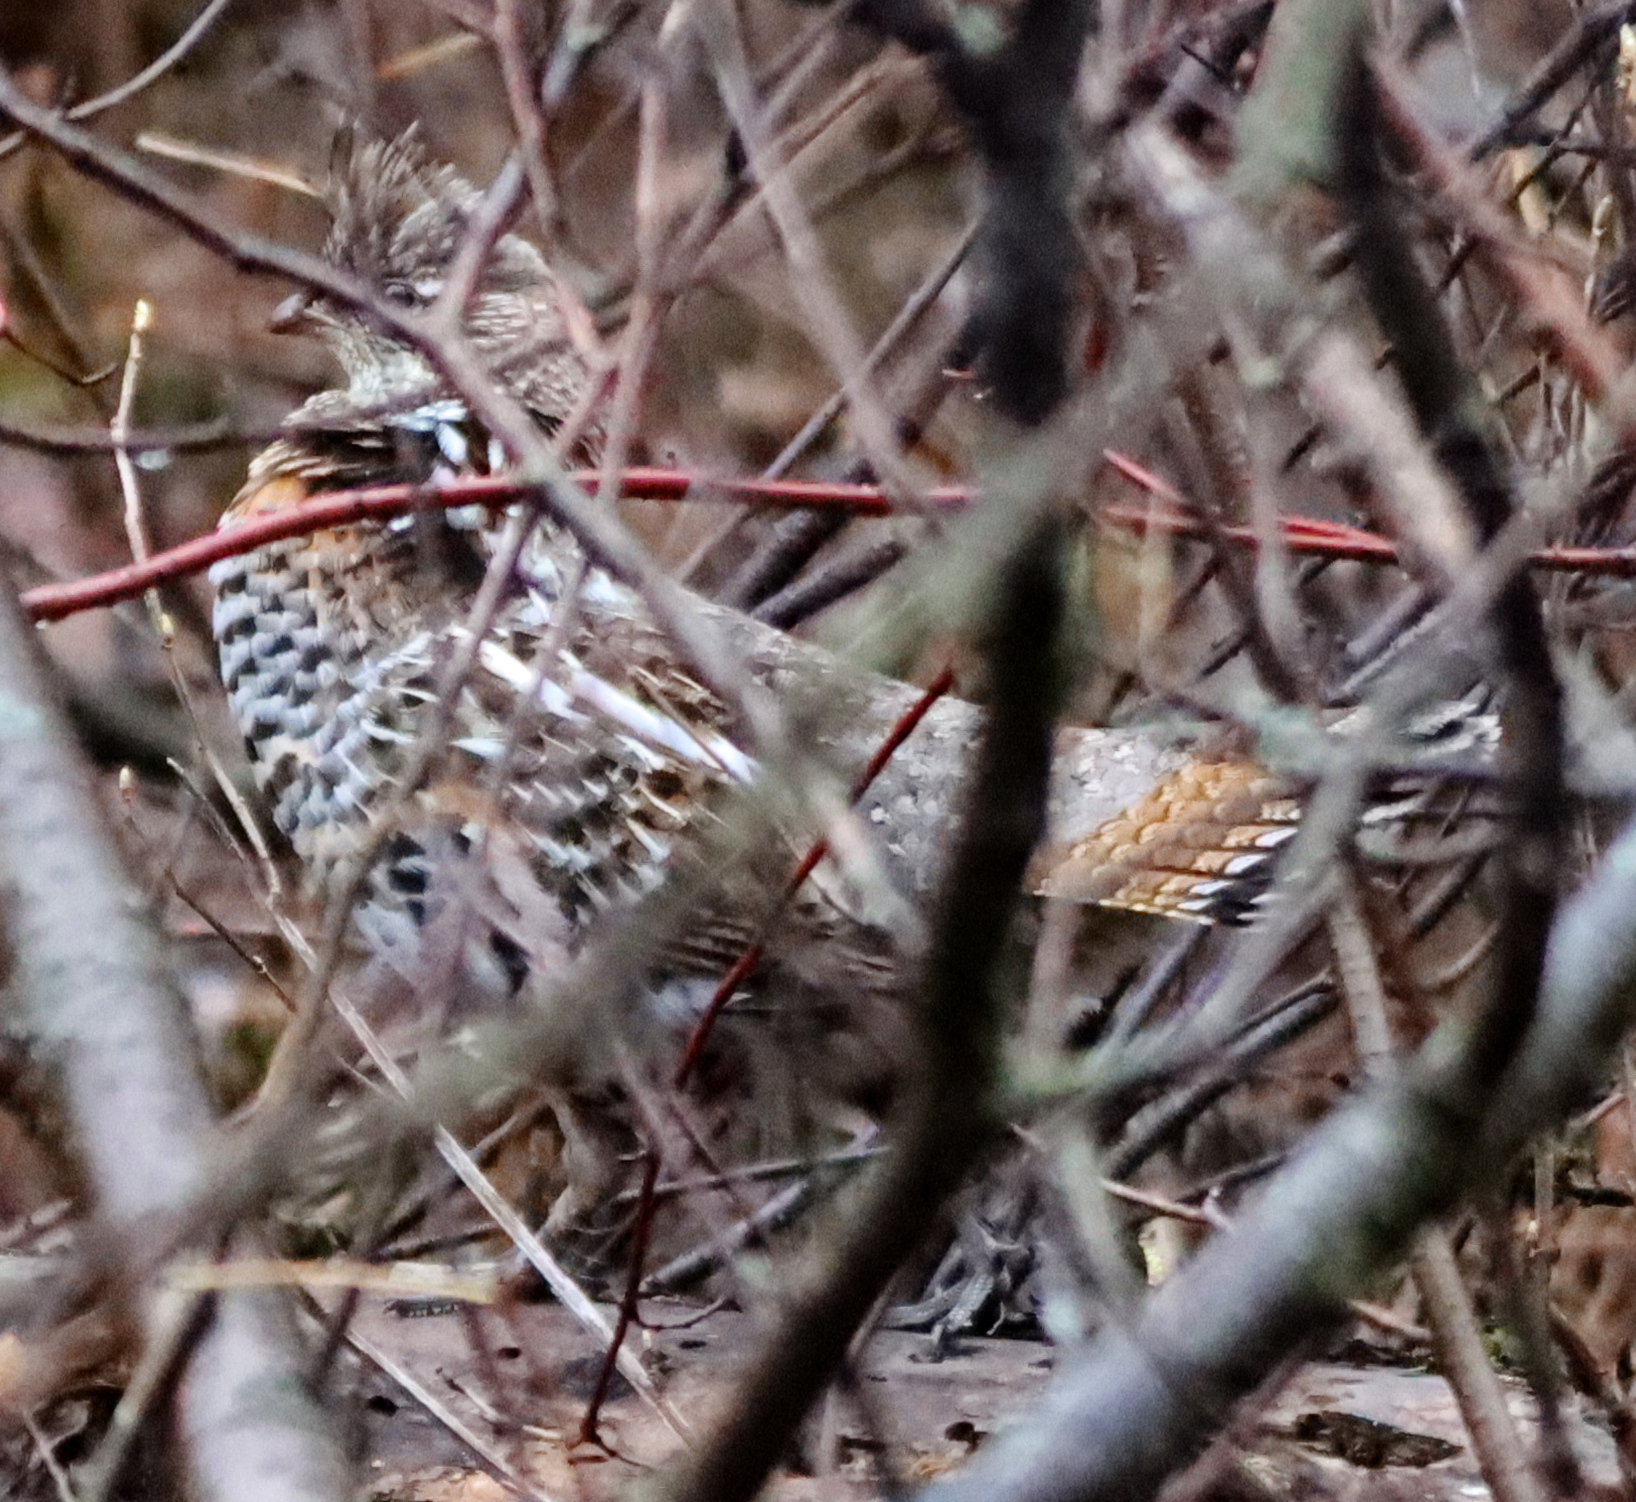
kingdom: Animalia
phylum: Chordata
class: Aves
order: Galliformes
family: Phasianidae
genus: Bonasa
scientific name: Bonasa umbellus
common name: Ruffed grouse
